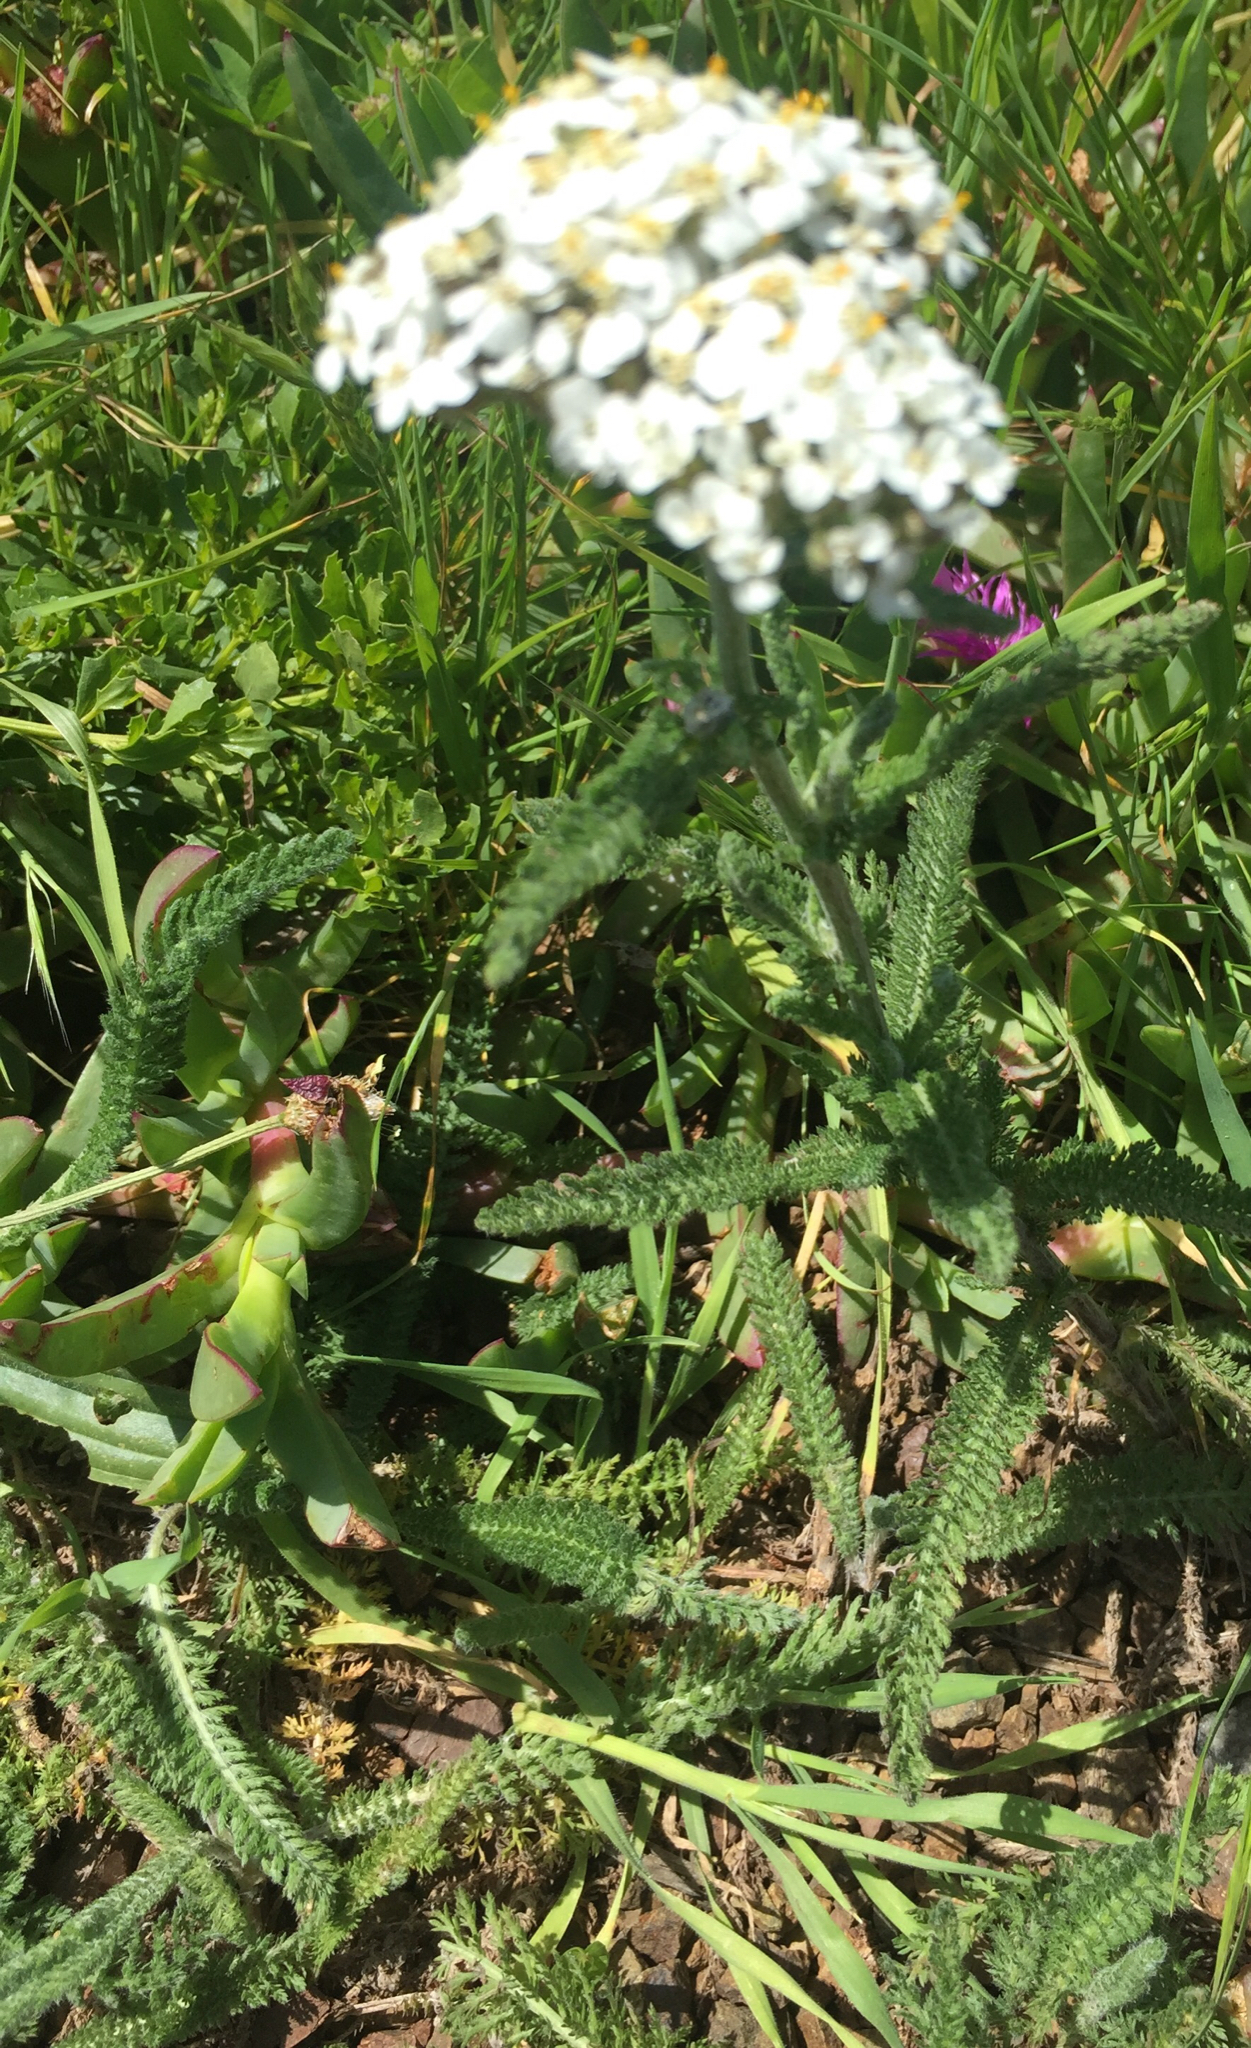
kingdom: Plantae
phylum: Tracheophyta
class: Magnoliopsida
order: Asterales
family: Asteraceae
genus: Achillea
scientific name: Achillea millefolium
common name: Yarrow
